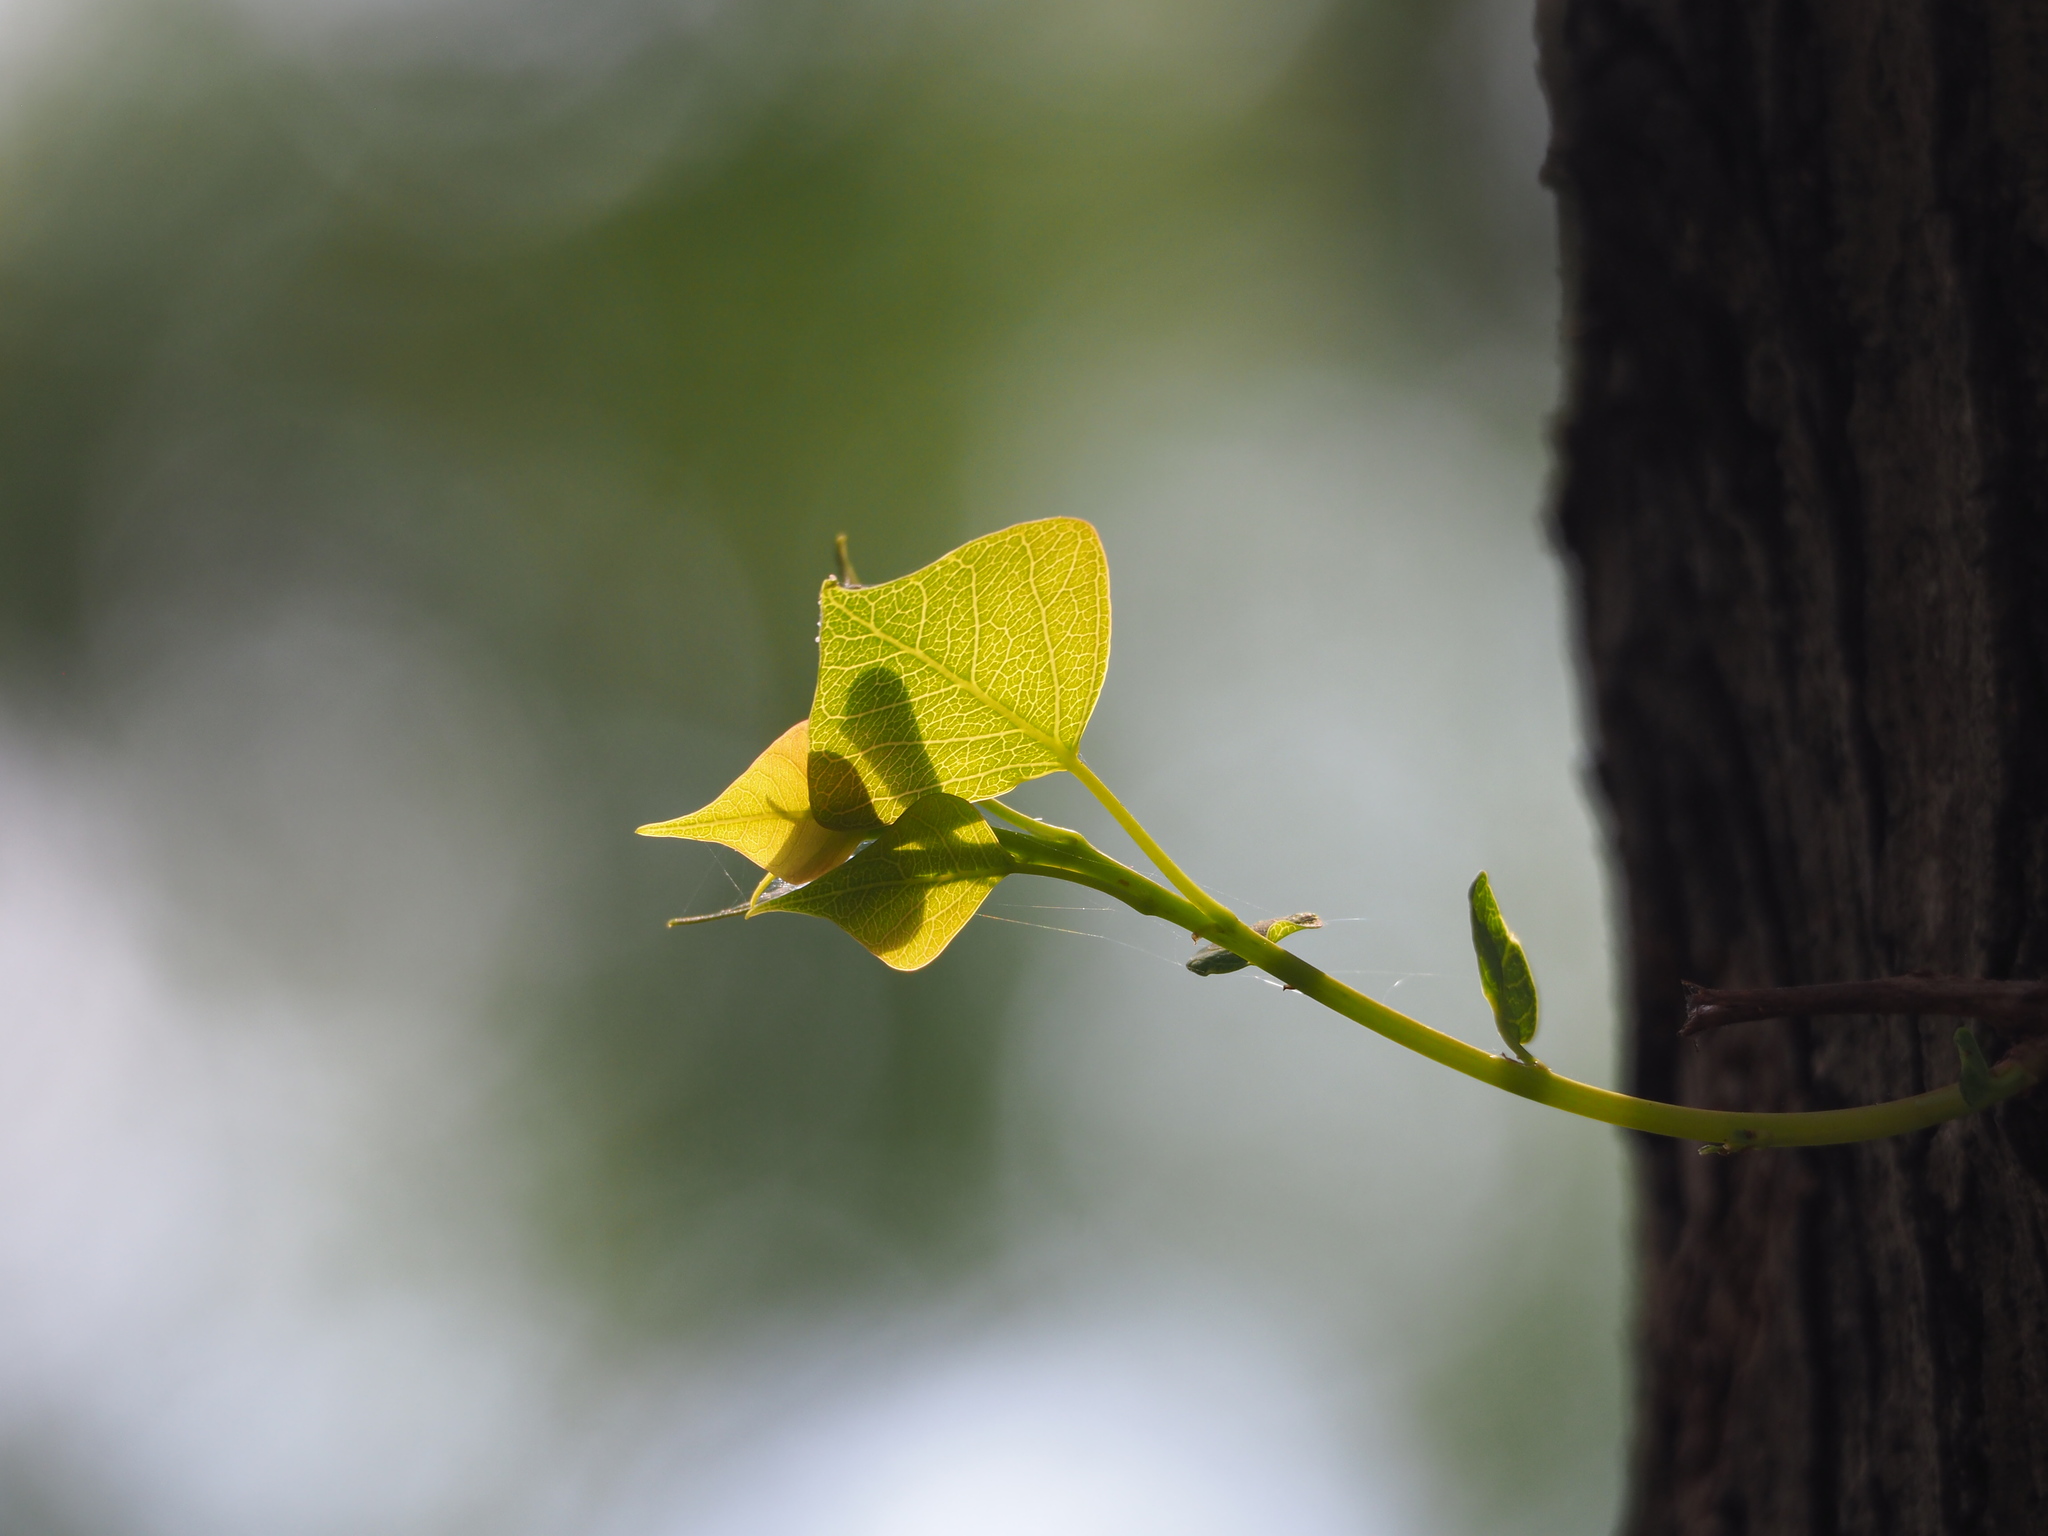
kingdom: Plantae
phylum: Tracheophyta
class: Magnoliopsida
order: Malpighiales
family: Euphorbiaceae
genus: Triadica
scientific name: Triadica sebifera
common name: Chinese tallow
